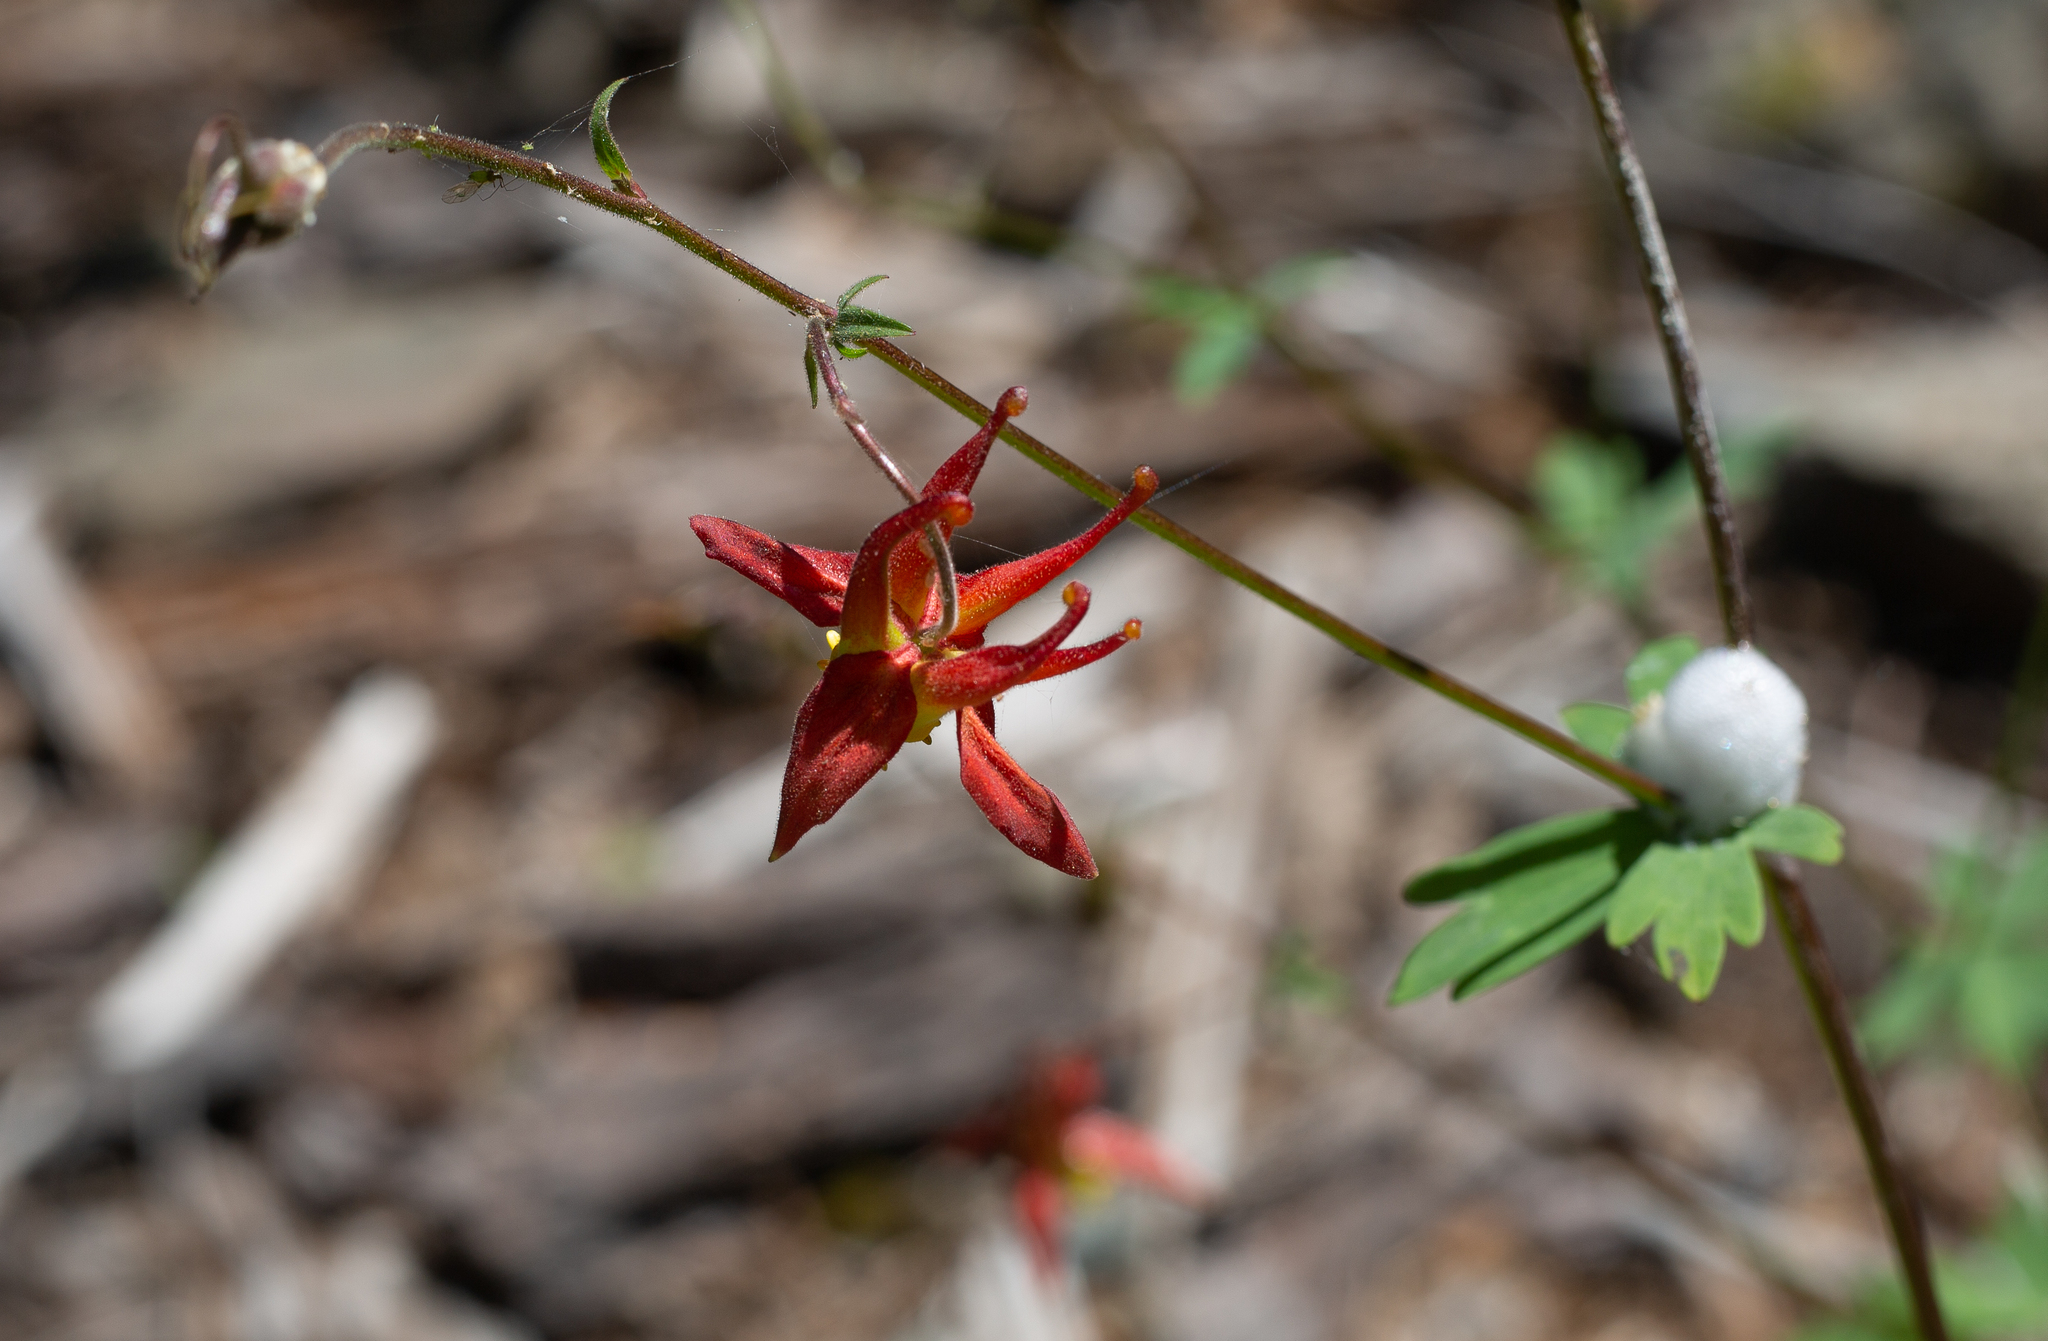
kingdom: Plantae
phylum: Tracheophyta
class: Magnoliopsida
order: Ranunculales
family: Ranunculaceae
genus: Aquilegia
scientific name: Aquilegia formosa
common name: Sitka columbine
